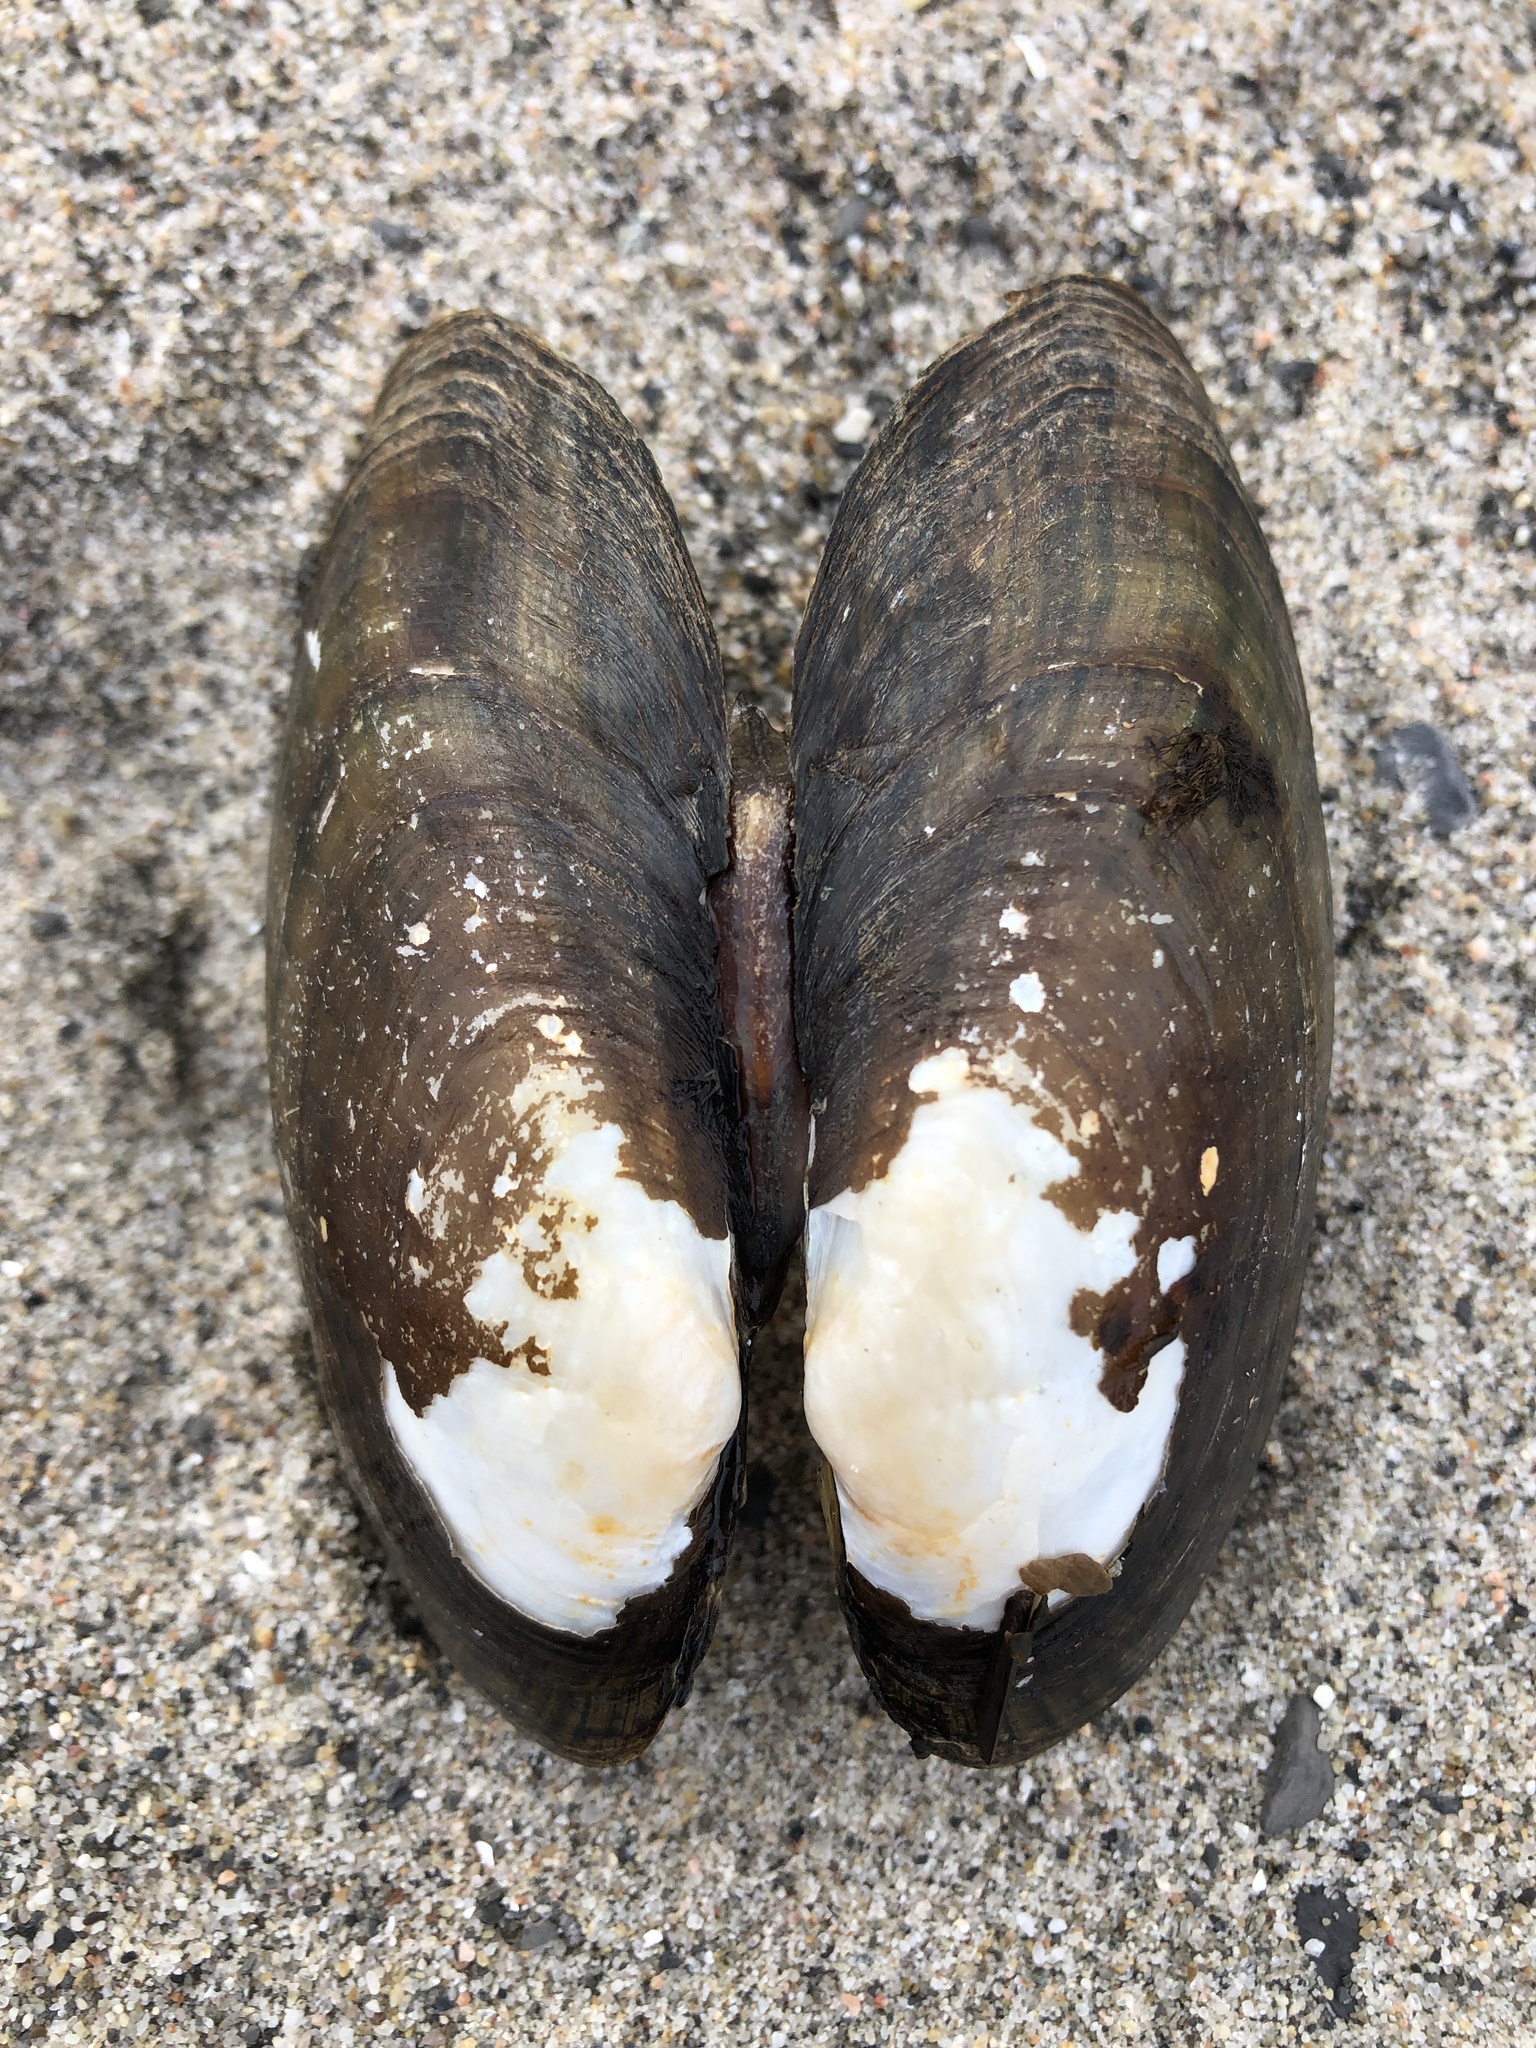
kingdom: Animalia
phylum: Mollusca
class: Bivalvia
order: Unionida
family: Unionidae
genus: Lampsilis
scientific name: Lampsilis radiata
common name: Eastern lampmussel
